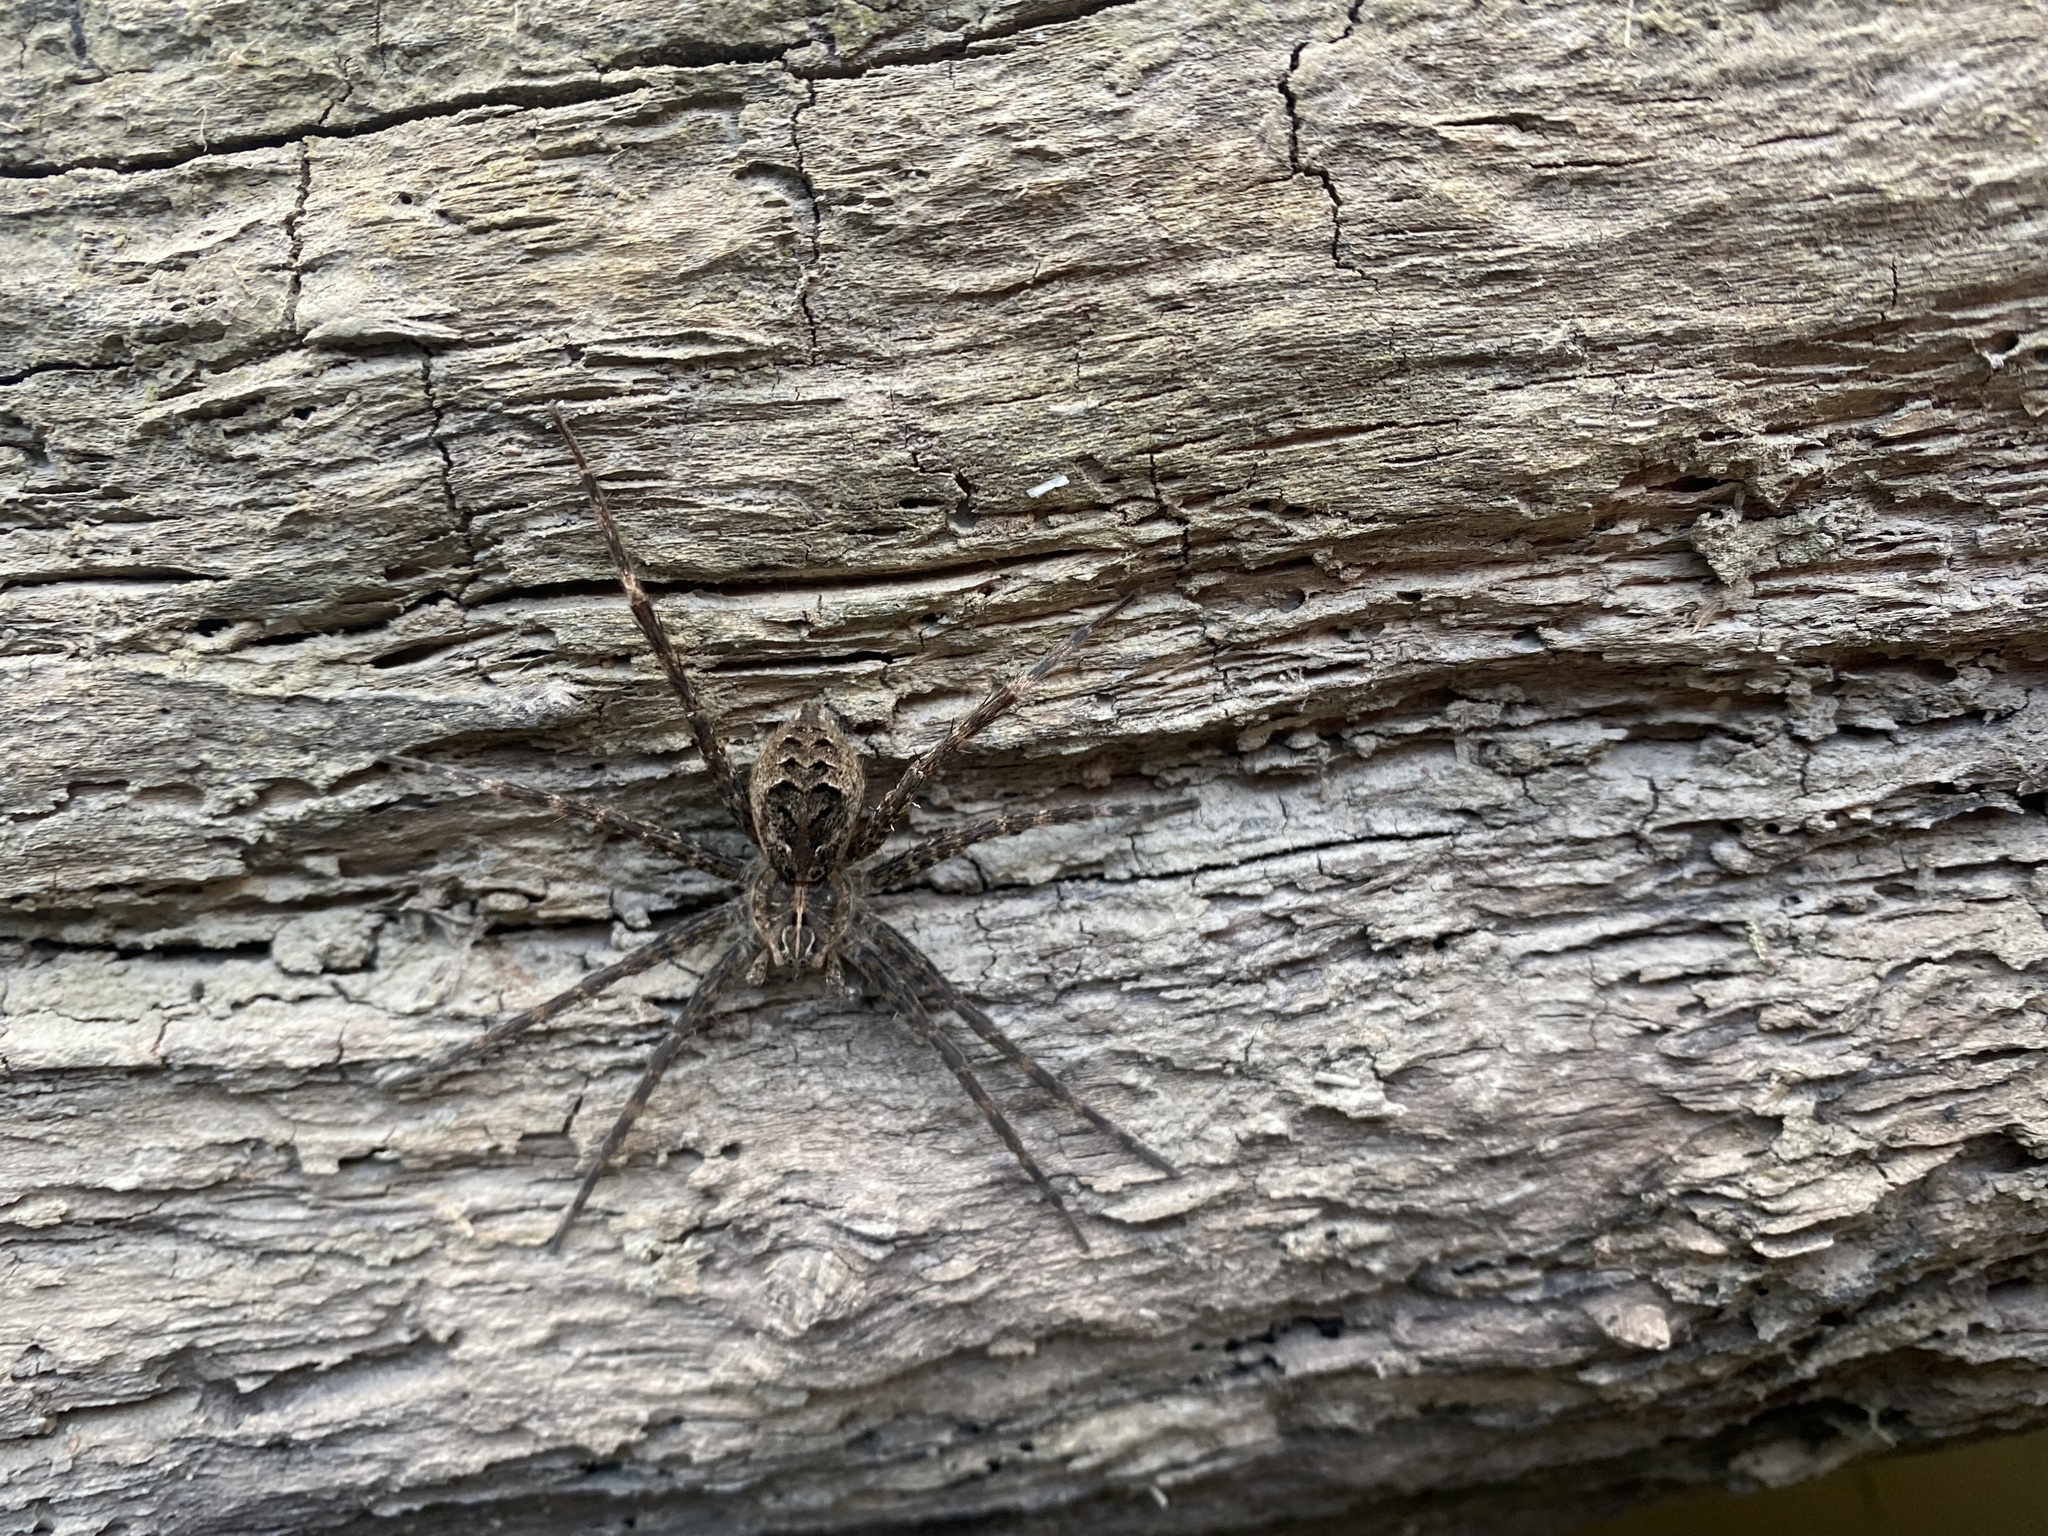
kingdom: Animalia
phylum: Arthropoda
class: Arachnida
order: Araneae
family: Pisauridae
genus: Dolomedes
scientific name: Dolomedes scriptus
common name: Striped fishing spider
